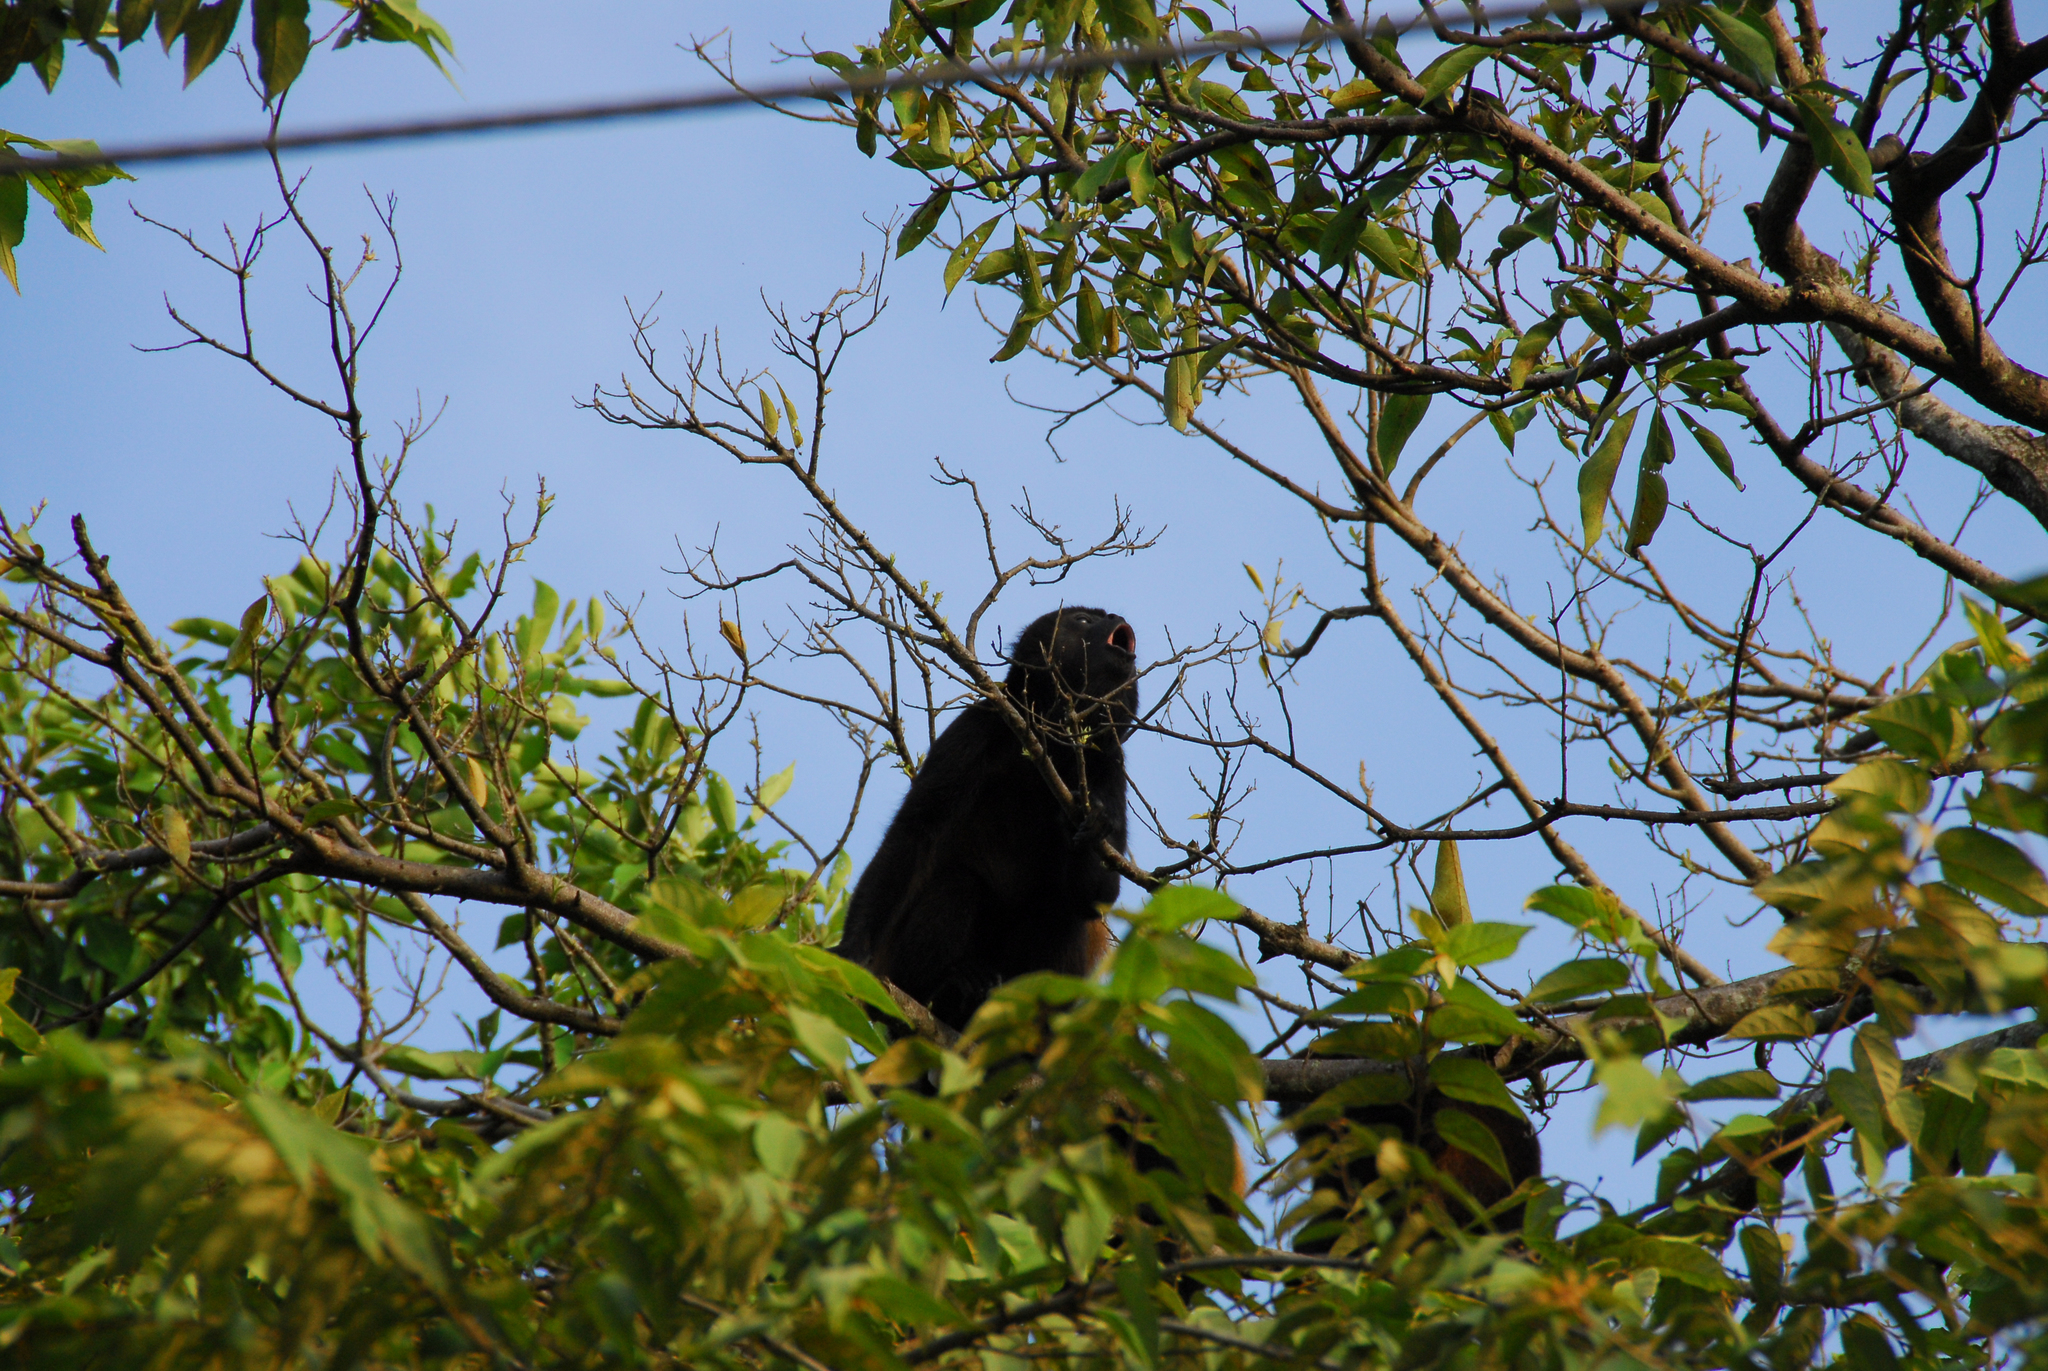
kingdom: Animalia
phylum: Chordata
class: Mammalia
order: Primates
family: Atelidae
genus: Alouatta
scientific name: Alouatta palliata
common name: Mantled howler
